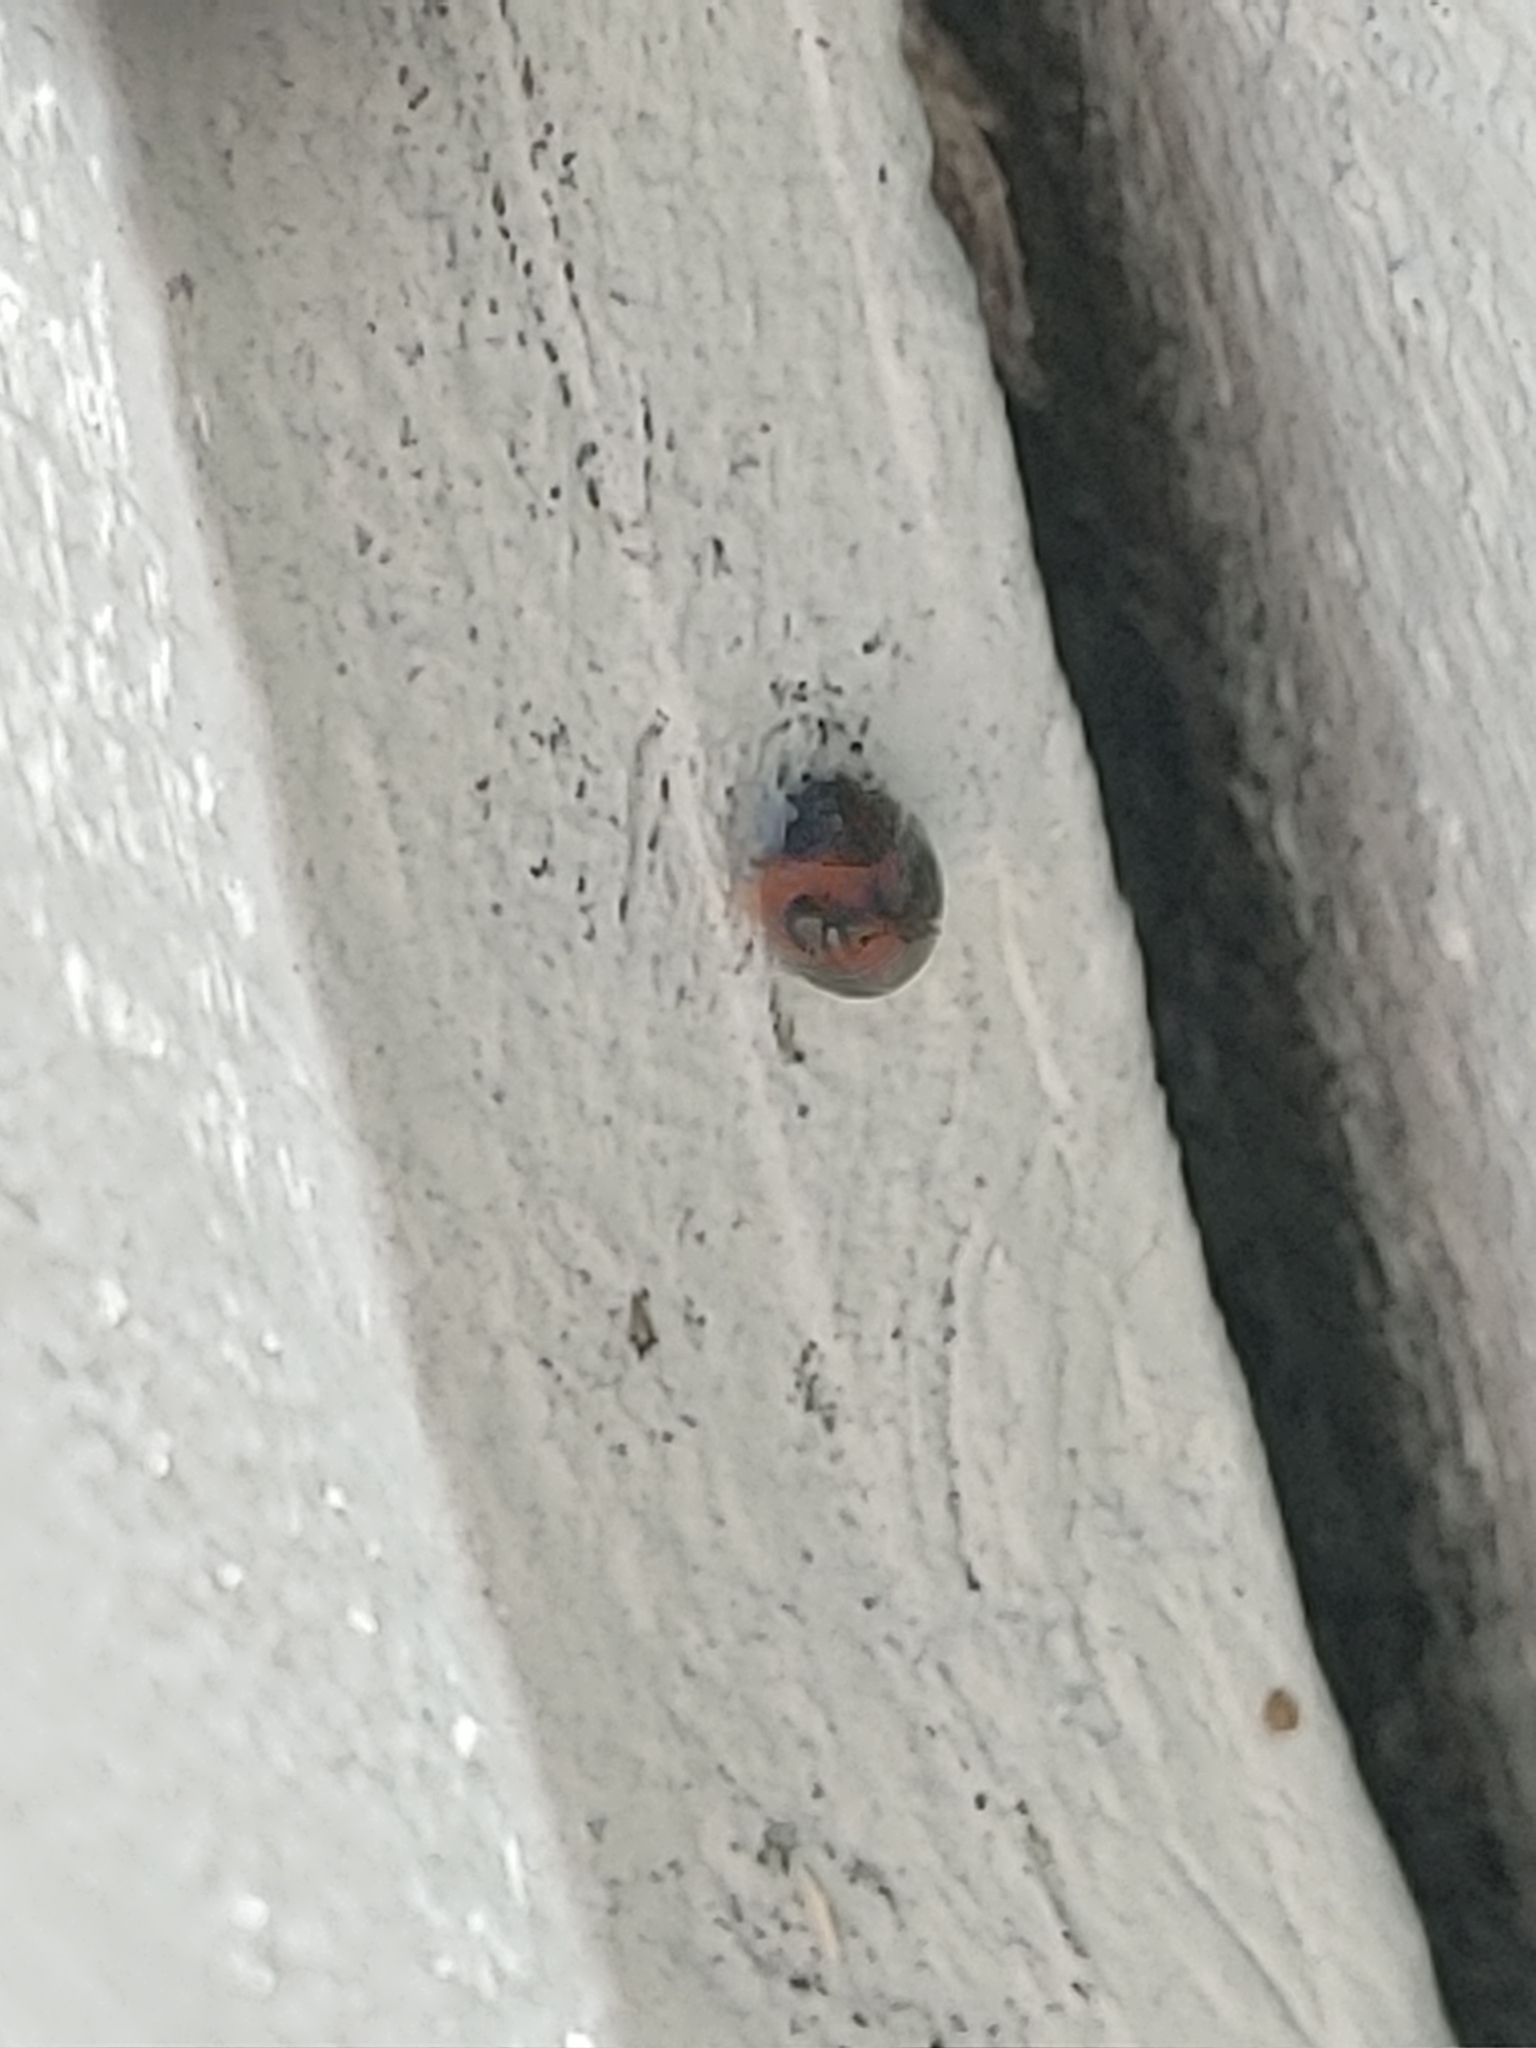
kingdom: Animalia
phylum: Arthropoda
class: Insecta
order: Coleoptera
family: Coccinellidae
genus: Exochomus
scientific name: Exochomus childreni
